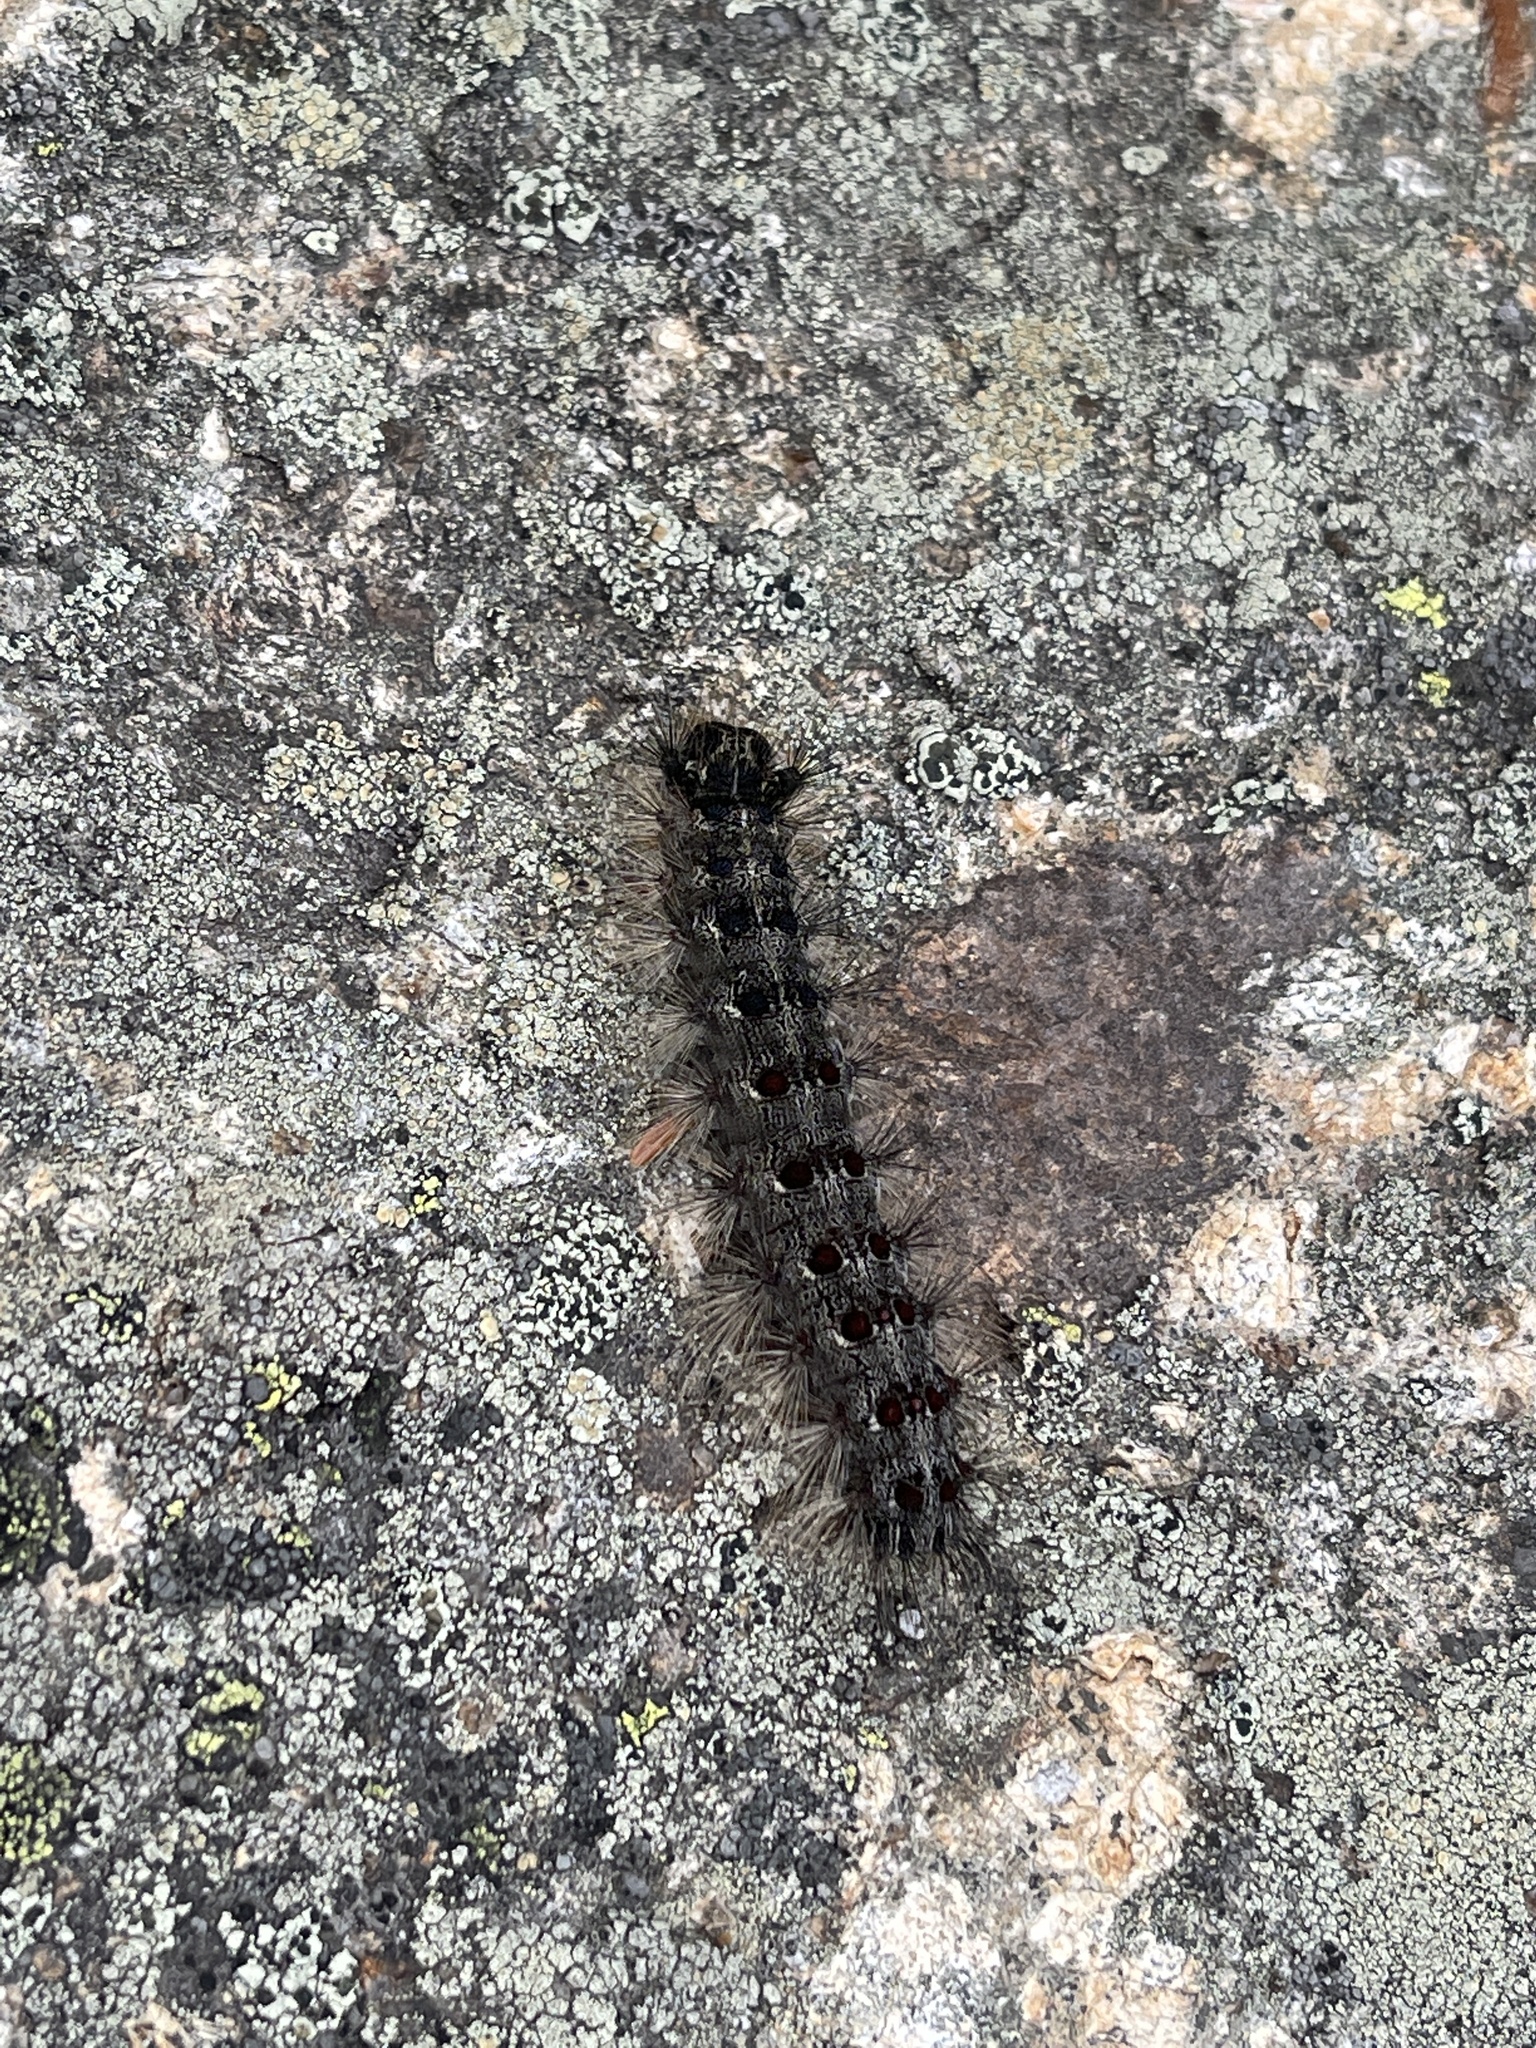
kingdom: Animalia
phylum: Arthropoda
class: Insecta
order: Lepidoptera
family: Erebidae
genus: Lymantria
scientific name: Lymantria dispar
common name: Gypsy moth
